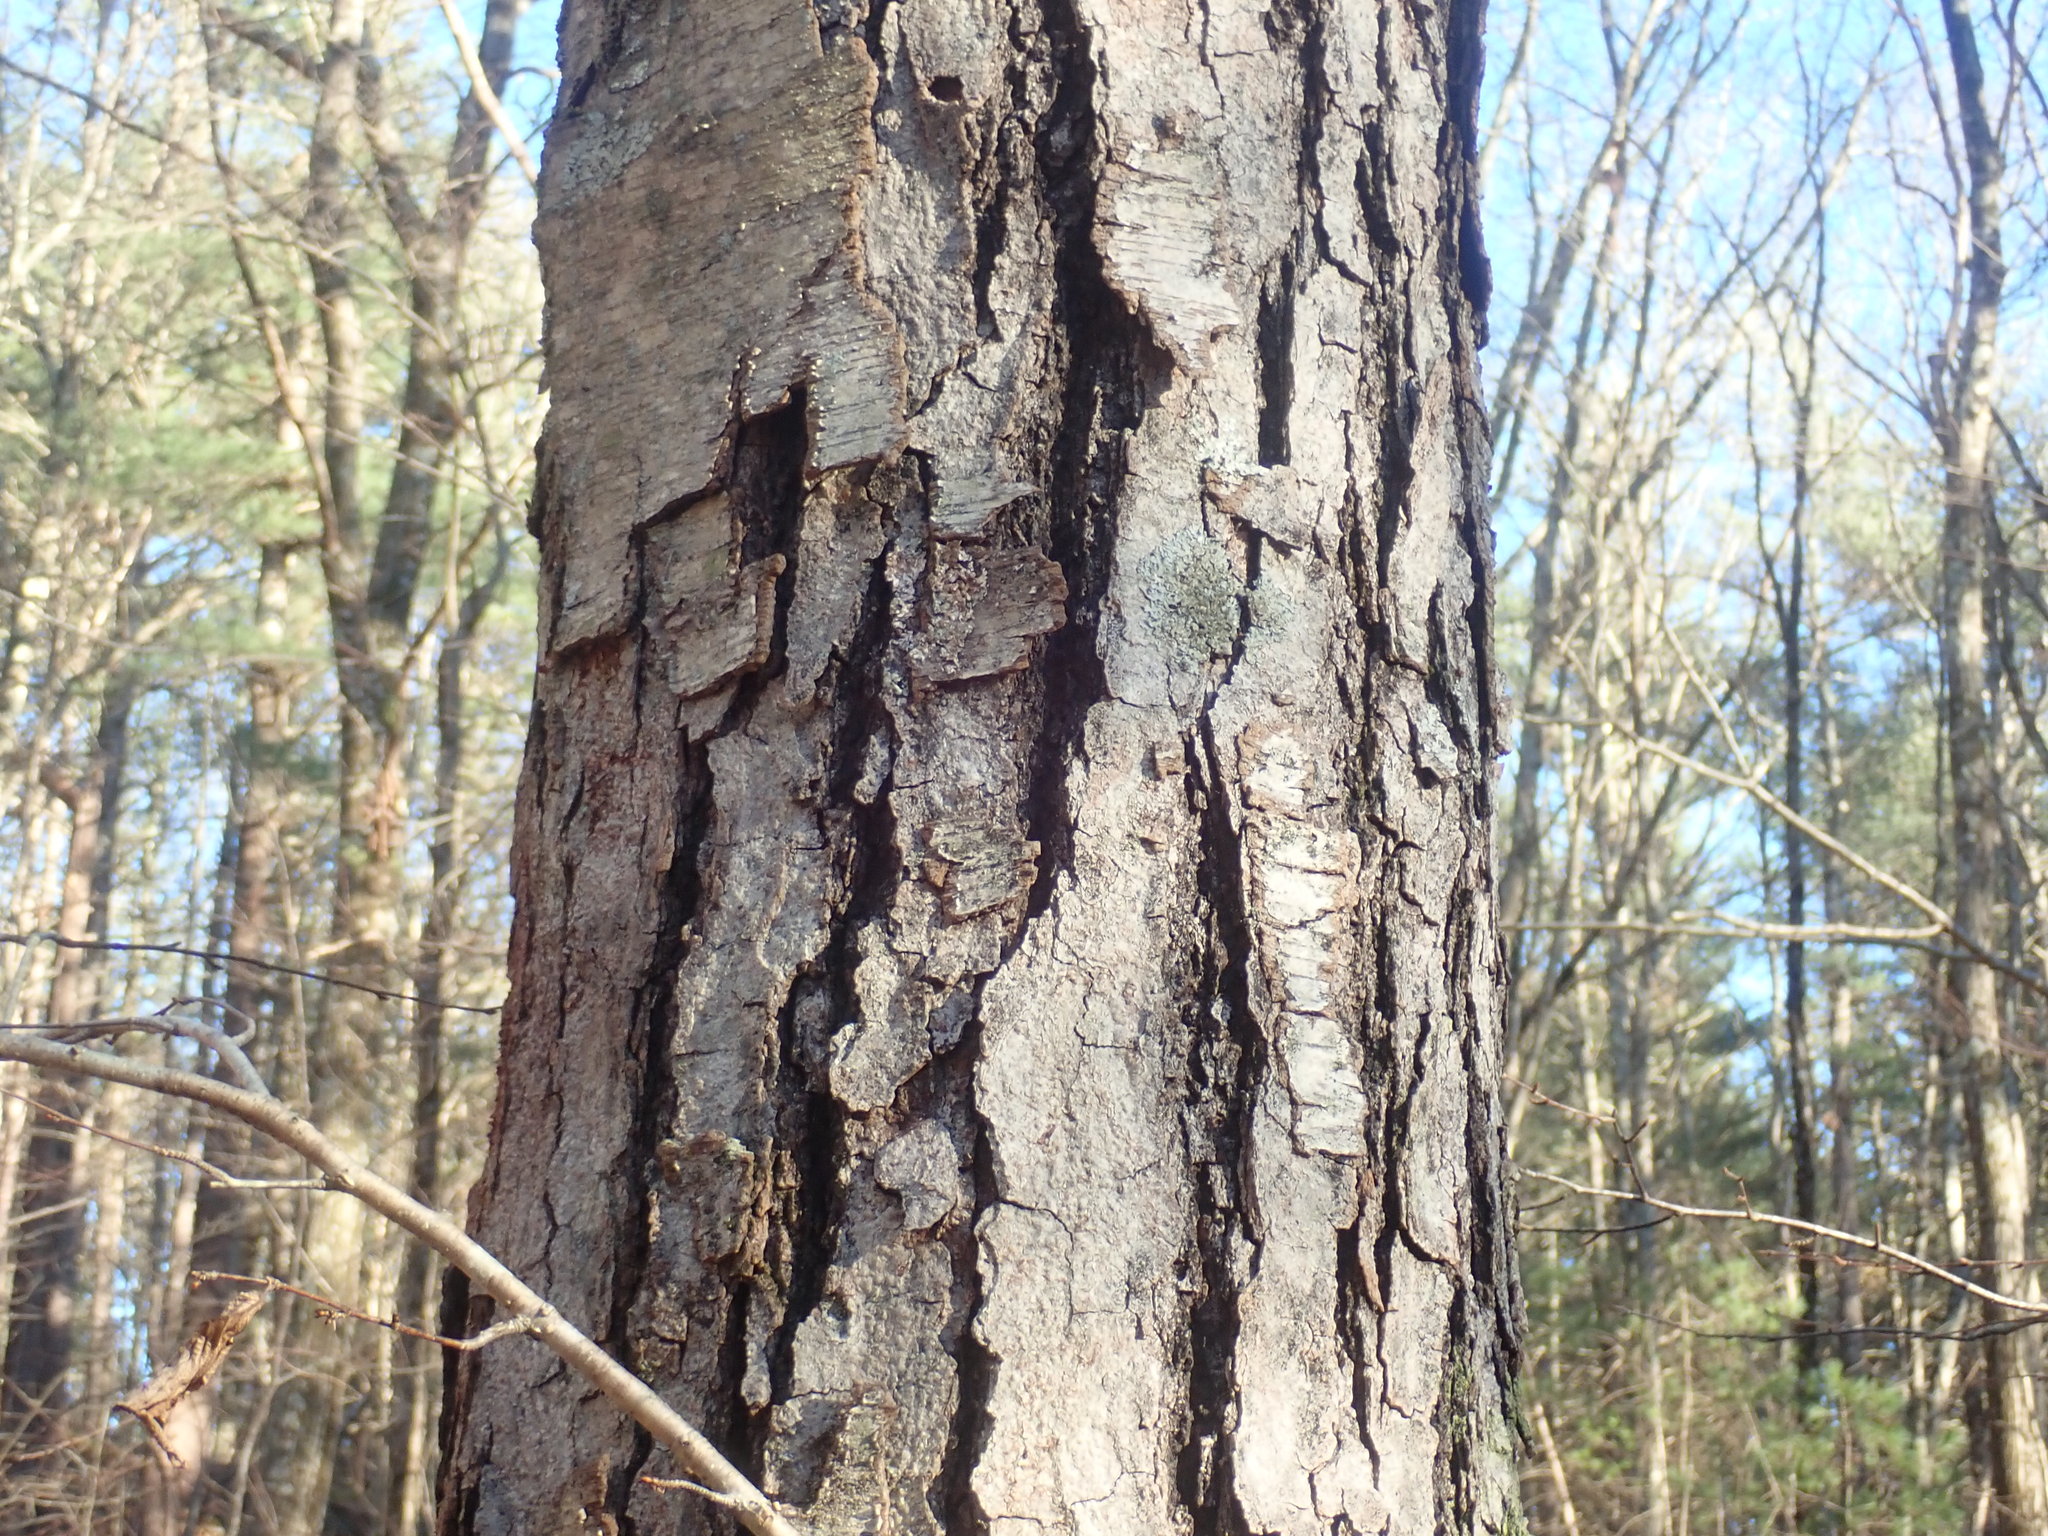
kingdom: Plantae
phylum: Tracheophyta
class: Magnoliopsida
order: Fagales
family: Betulaceae
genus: Betula
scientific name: Betula lenta
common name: Black birch
